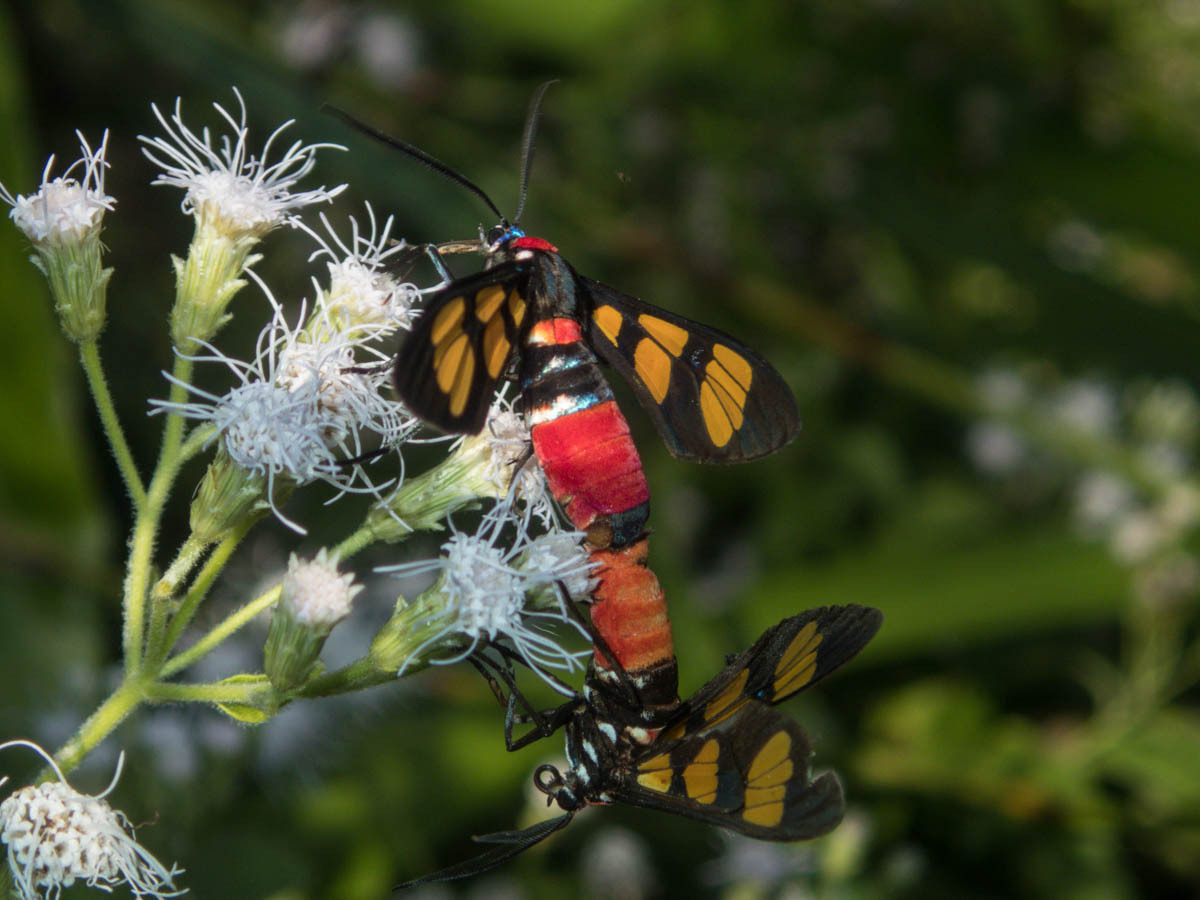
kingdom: Animalia
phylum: Arthropoda
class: Insecta
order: Lepidoptera
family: Erebidae
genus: Euchromia
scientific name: Euchromia polymena
